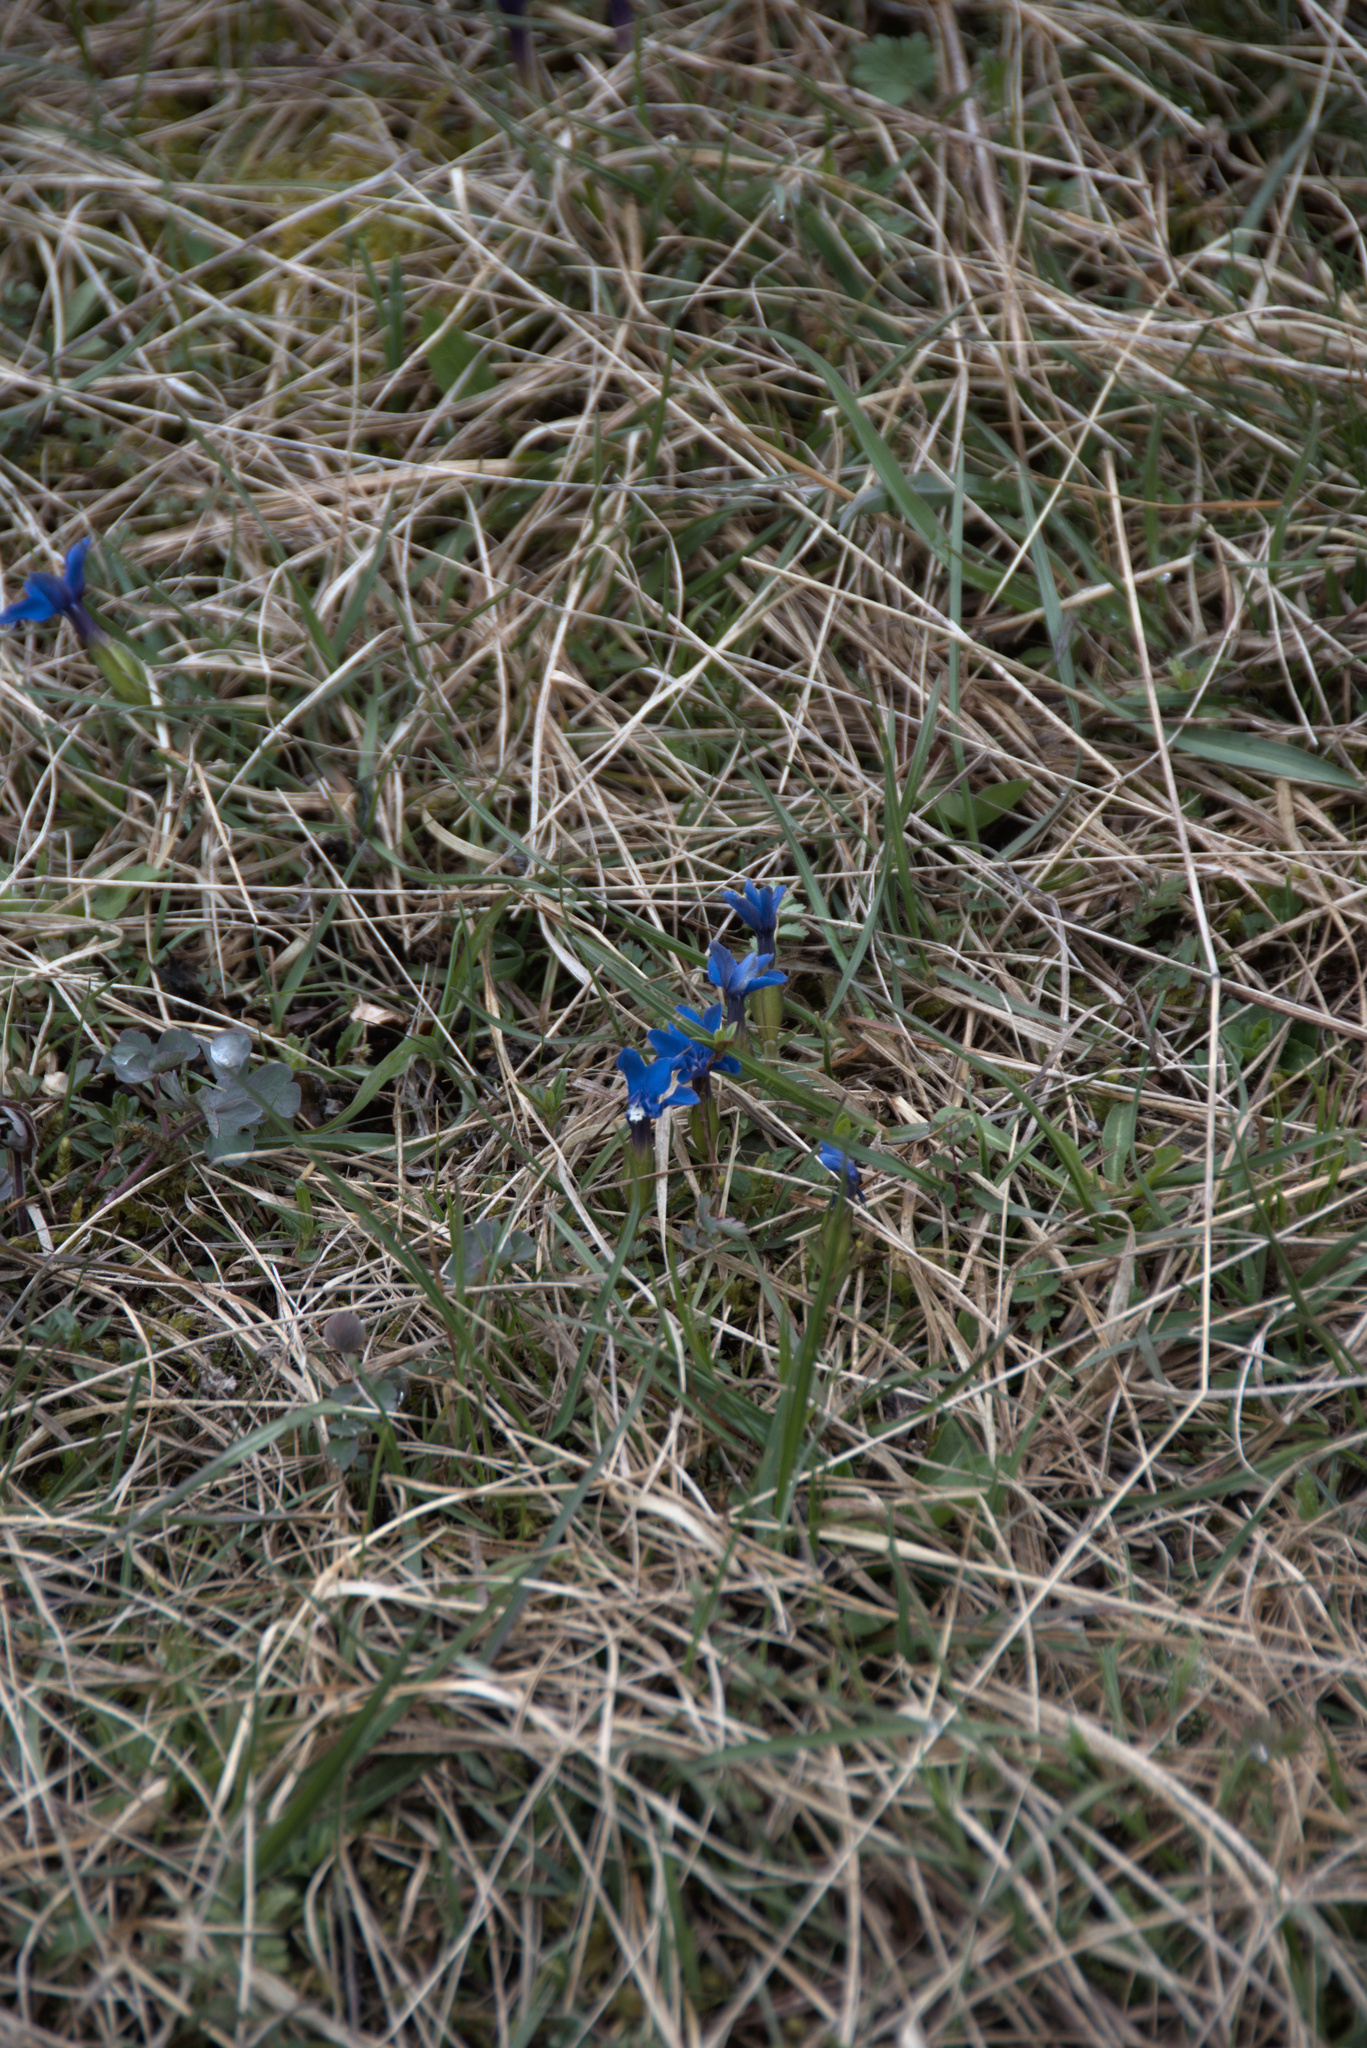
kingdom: Plantae
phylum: Tracheophyta
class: Magnoliopsida
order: Gentianales
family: Gentianaceae
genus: Gentiana
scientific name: Gentiana verna
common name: Spring gentian
